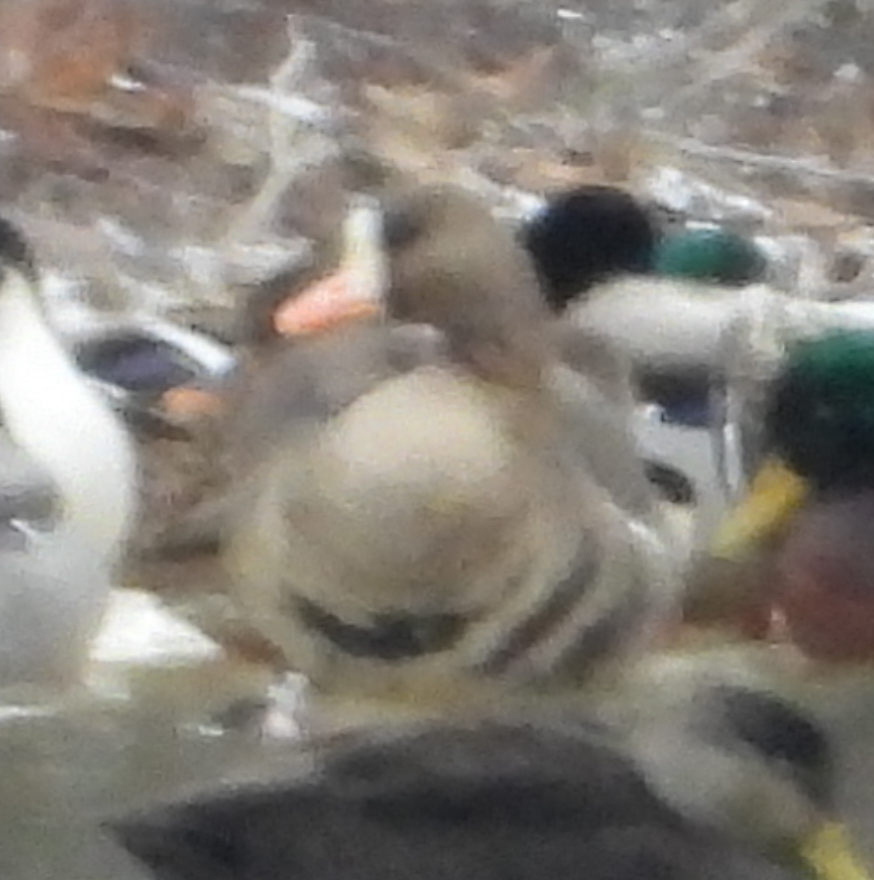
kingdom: Animalia
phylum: Chordata
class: Aves
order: Anseriformes
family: Anatidae
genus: Anser
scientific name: Anser albifrons
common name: Greater white-fronted goose
